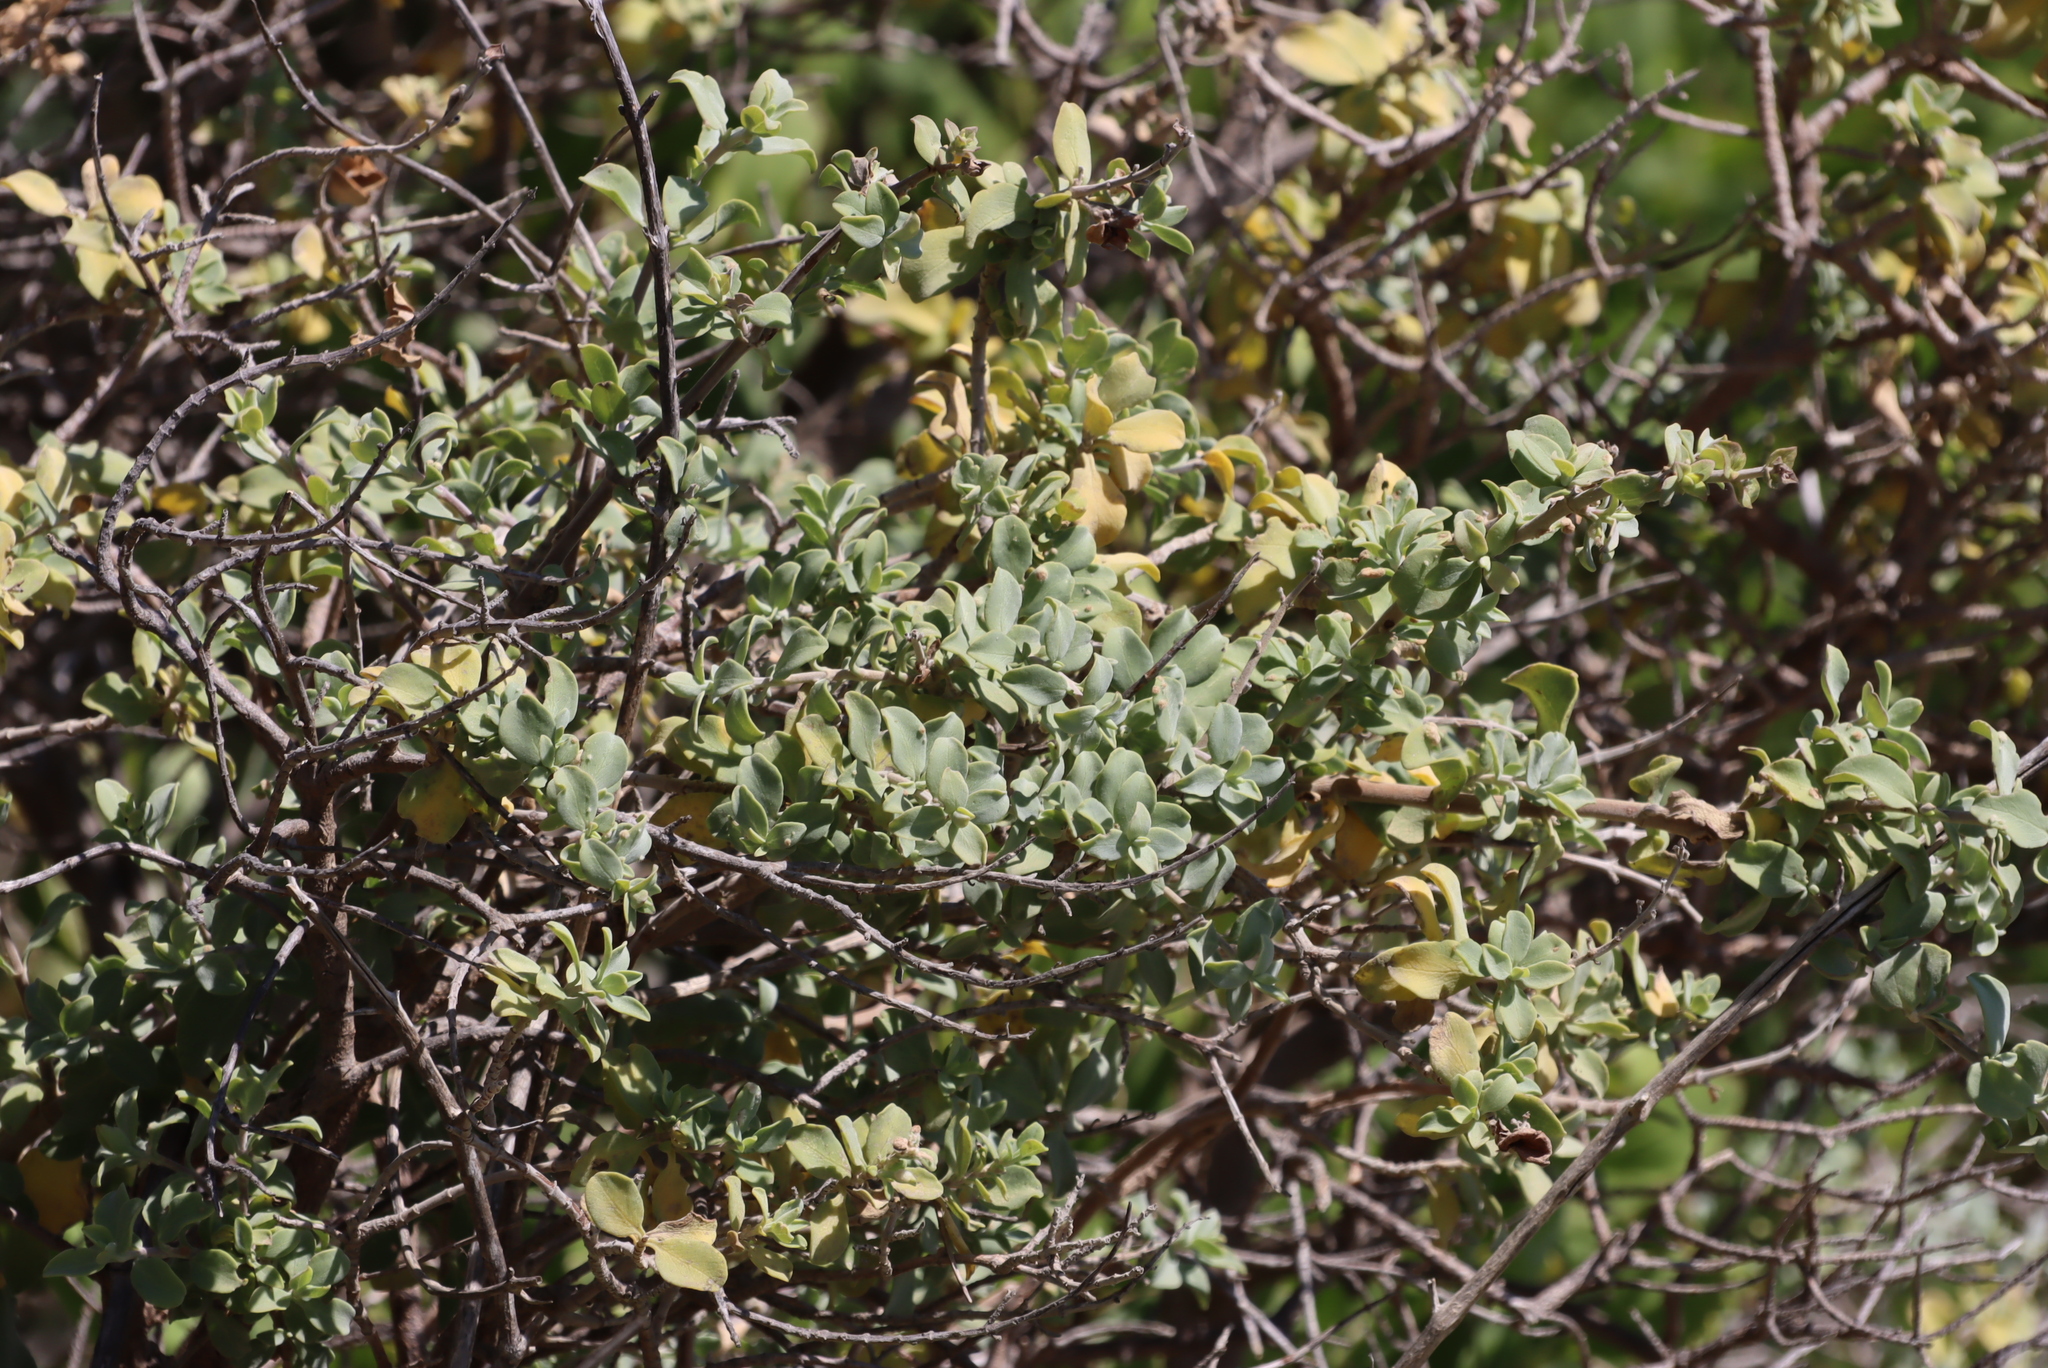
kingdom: Plantae
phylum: Tracheophyta
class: Magnoliopsida
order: Lamiales
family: Lamiaceae
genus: Salvia
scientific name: Salvia aurea
